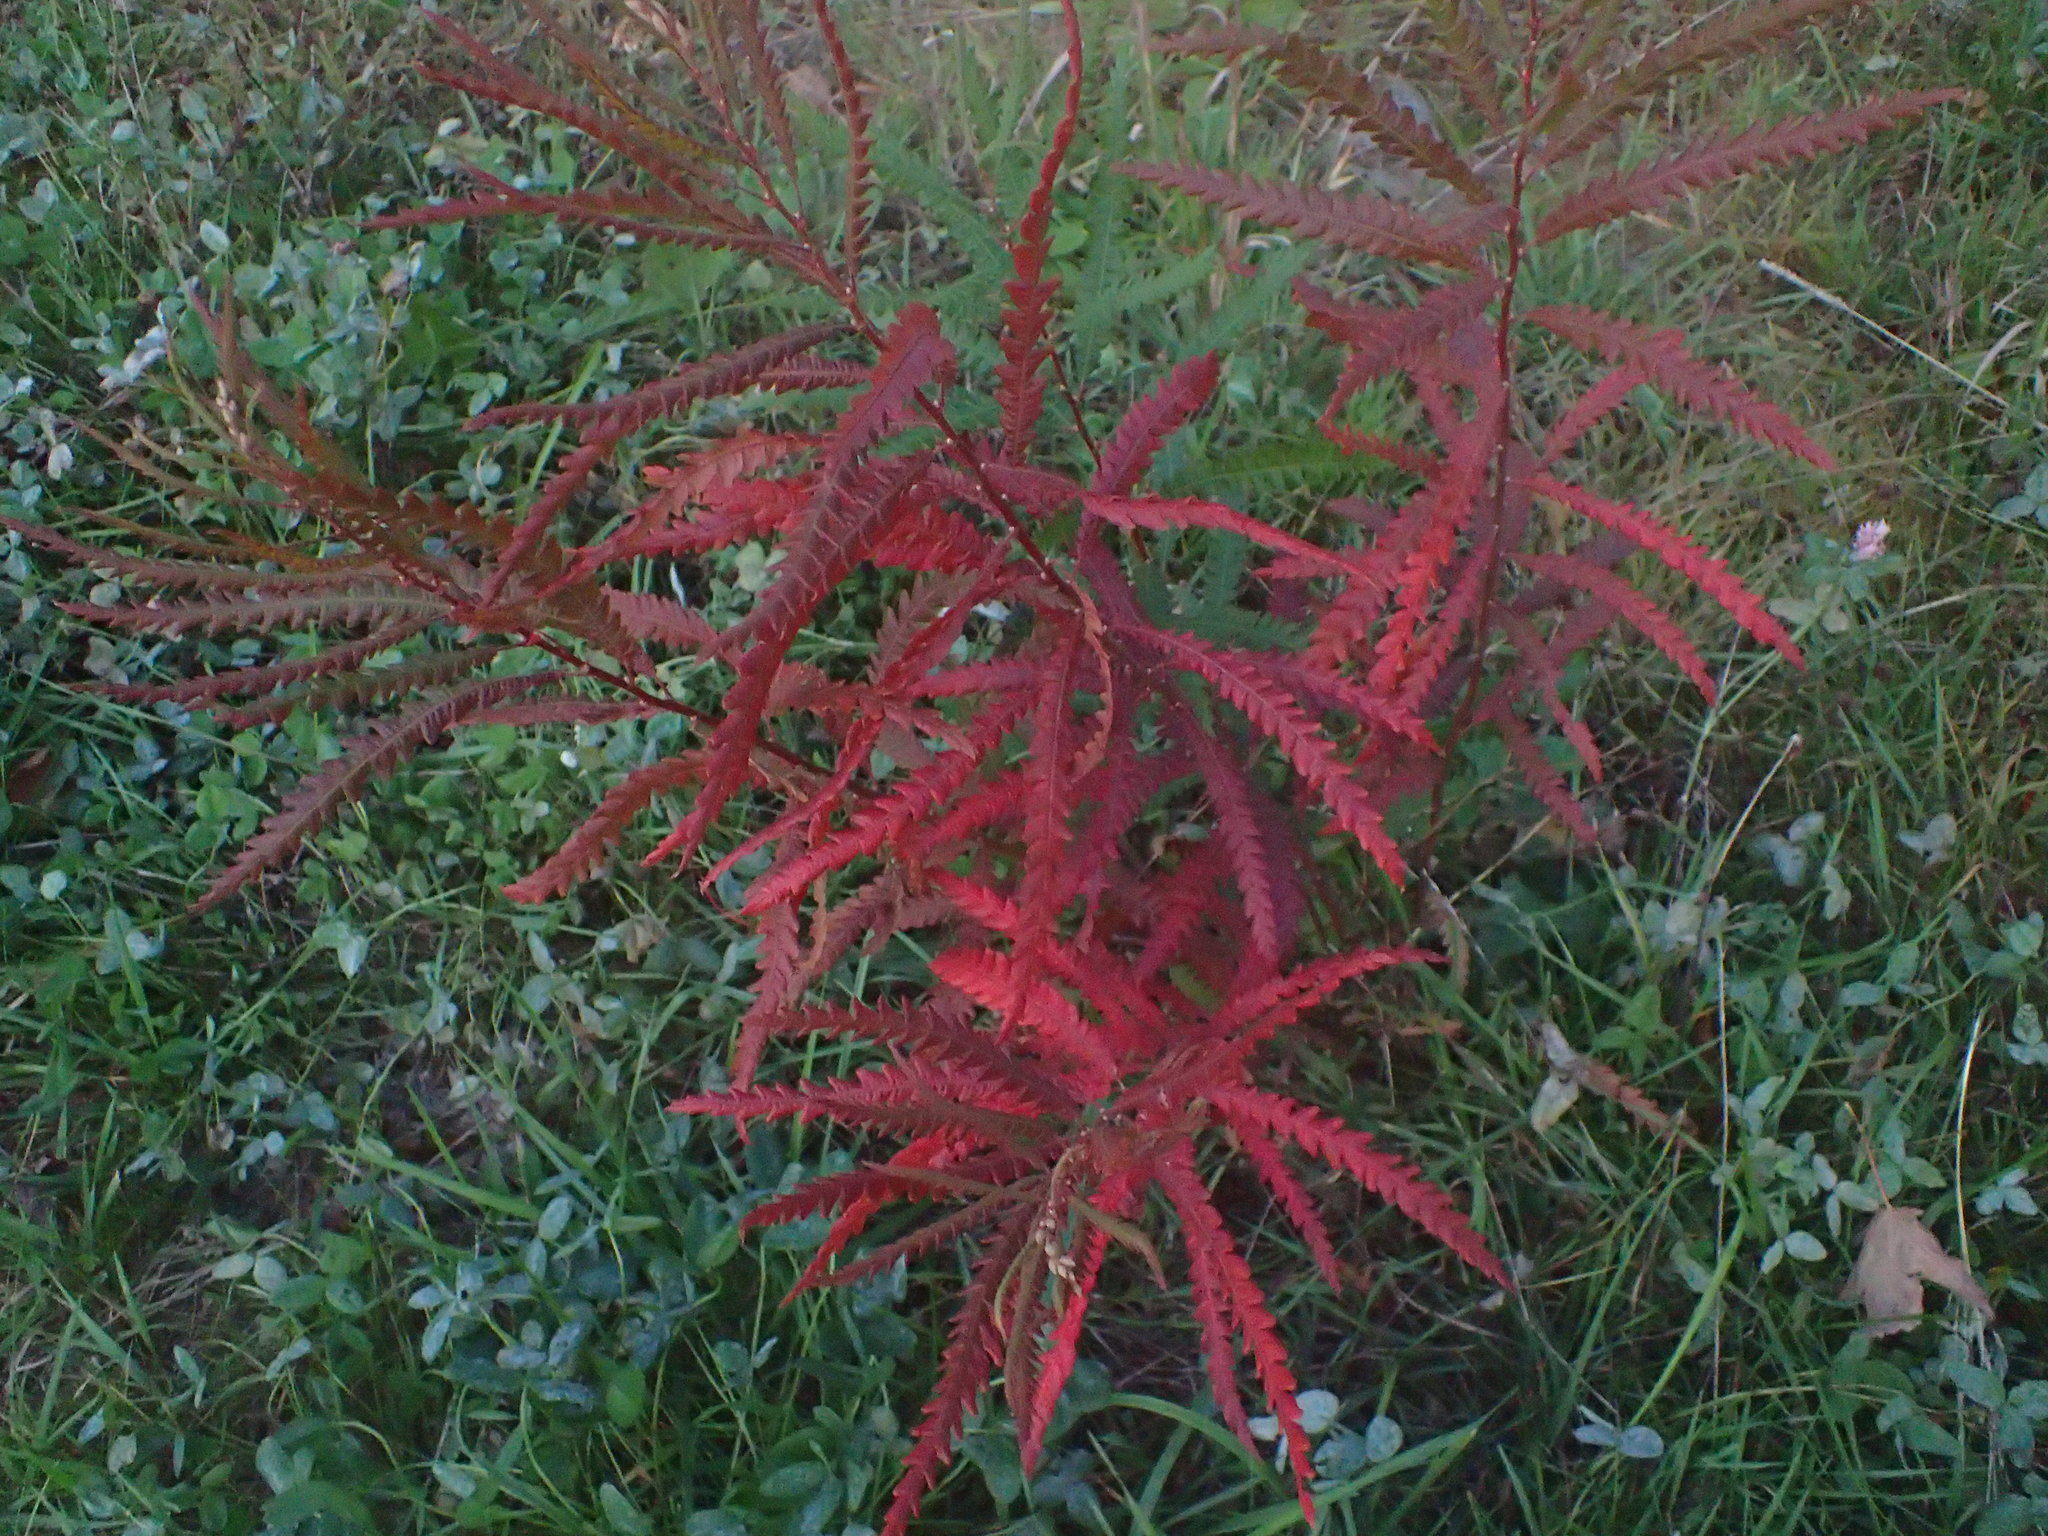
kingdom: Plantae
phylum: Tracheophyta
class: Magnoliopsida
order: Fagales
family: Myricaceae
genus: Comptonia
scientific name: Comptonia peregrina
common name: Sweet-fern
